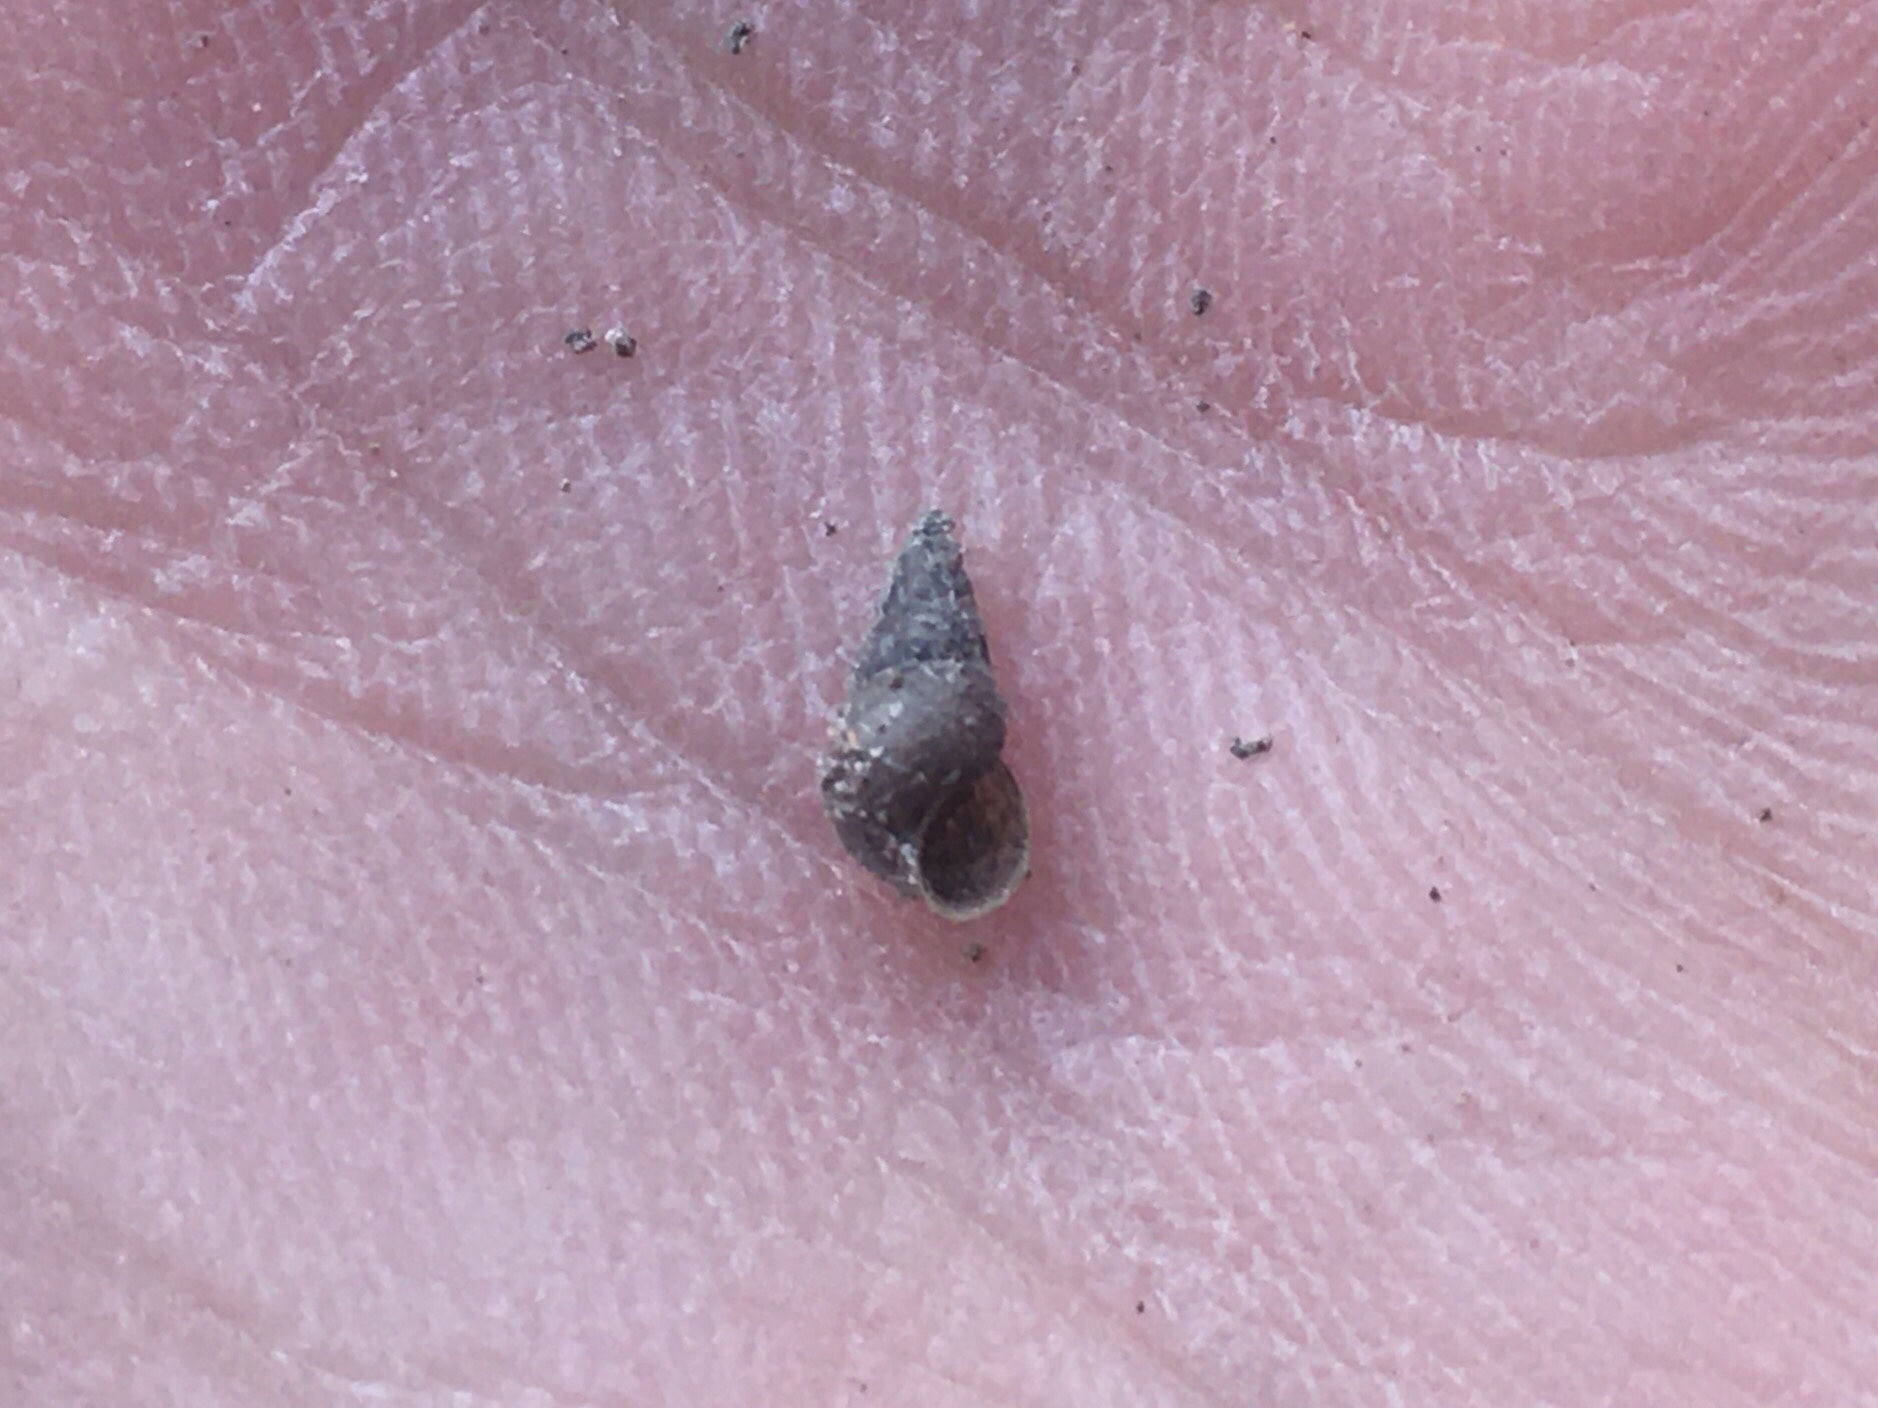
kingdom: Animalia
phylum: Mollusca
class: Gastropoda
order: Littorinimorpha
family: Cochliopidae
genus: Heleobia
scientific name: Heleobia parchappii
